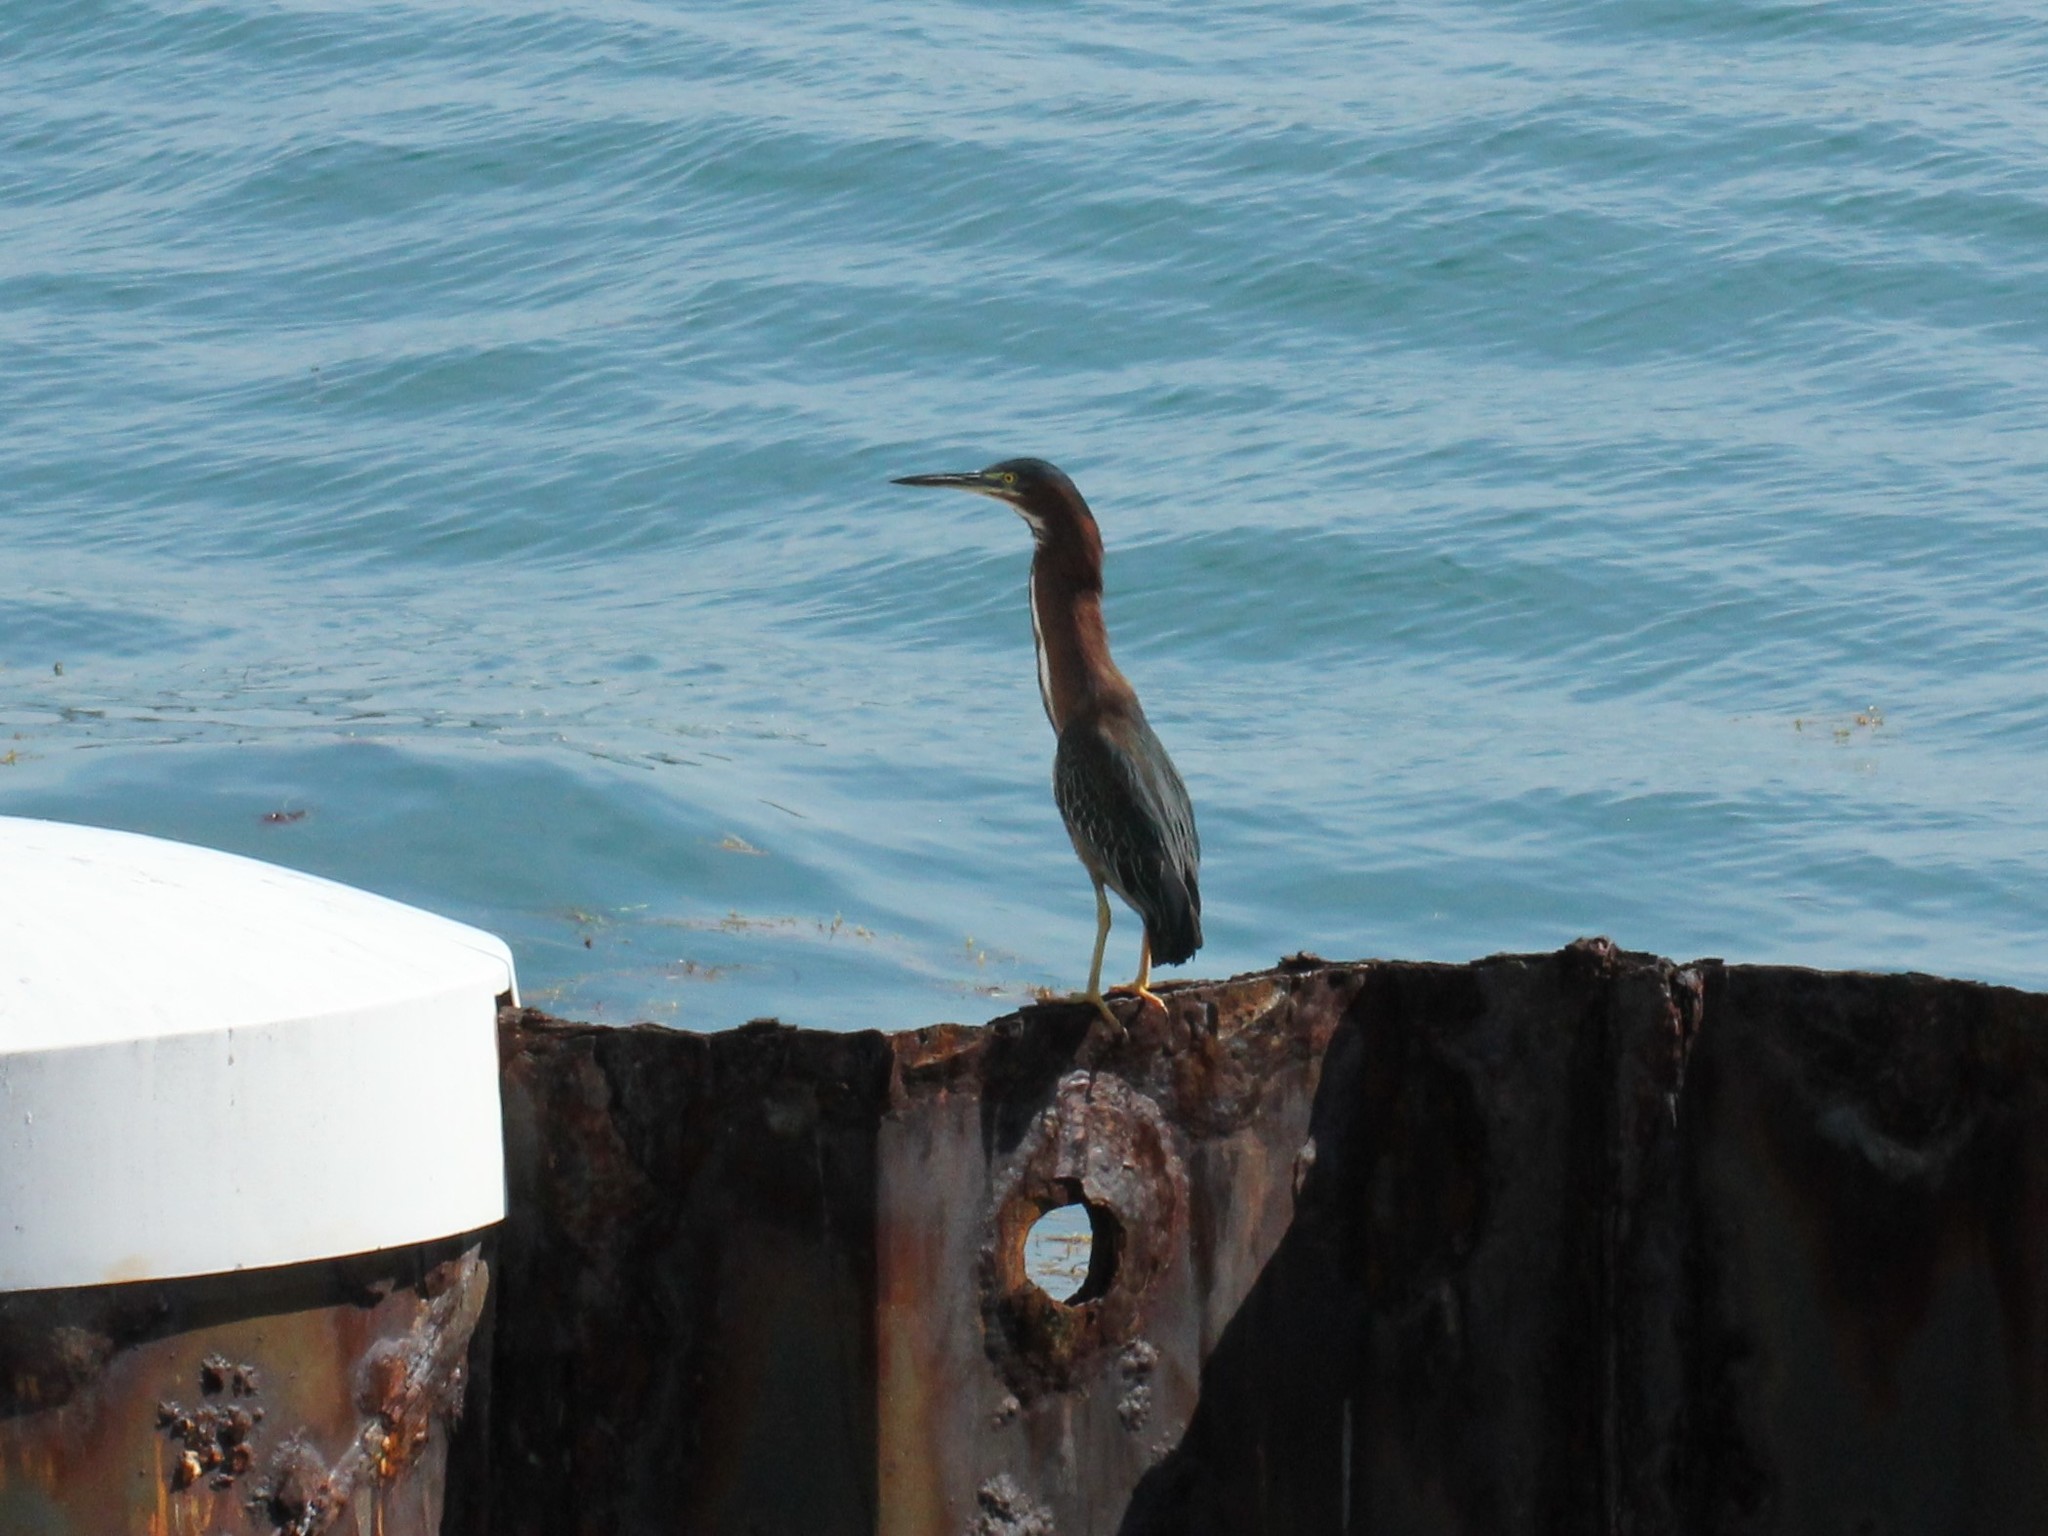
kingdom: Animalia
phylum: Chordata
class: Aves
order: Pelecaniformes
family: Ardeidae
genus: Butorides
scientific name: Butorides virescens
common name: Green heron
